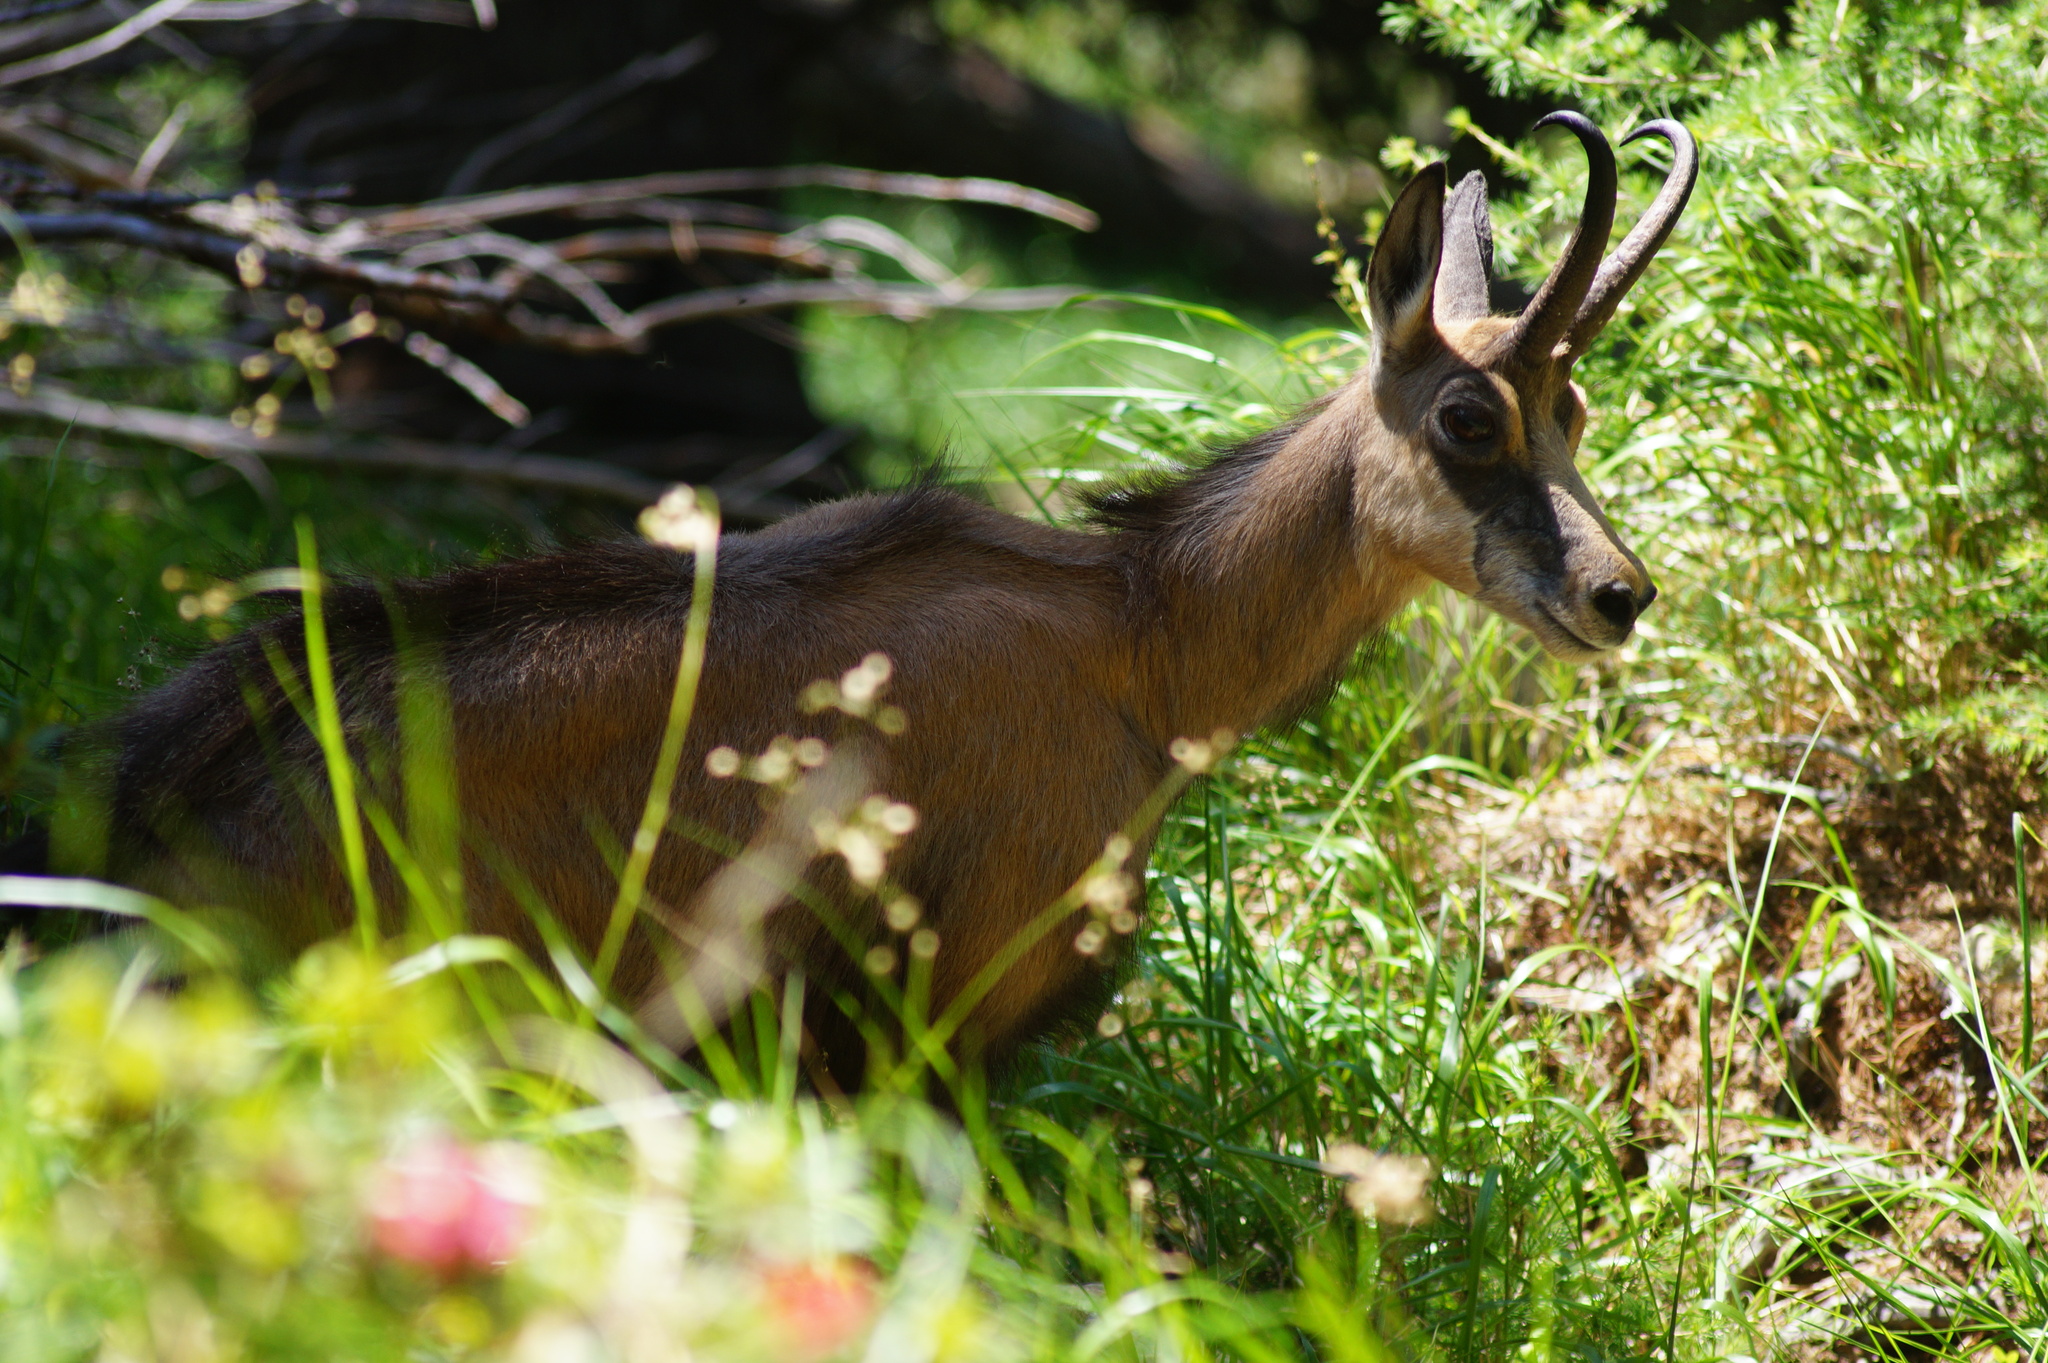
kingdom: Animalia
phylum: Chordata
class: Mammalia
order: Artiodactyla
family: Bovidae
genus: Rupicapra
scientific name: Rupicapra rupicapra
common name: Chamois
